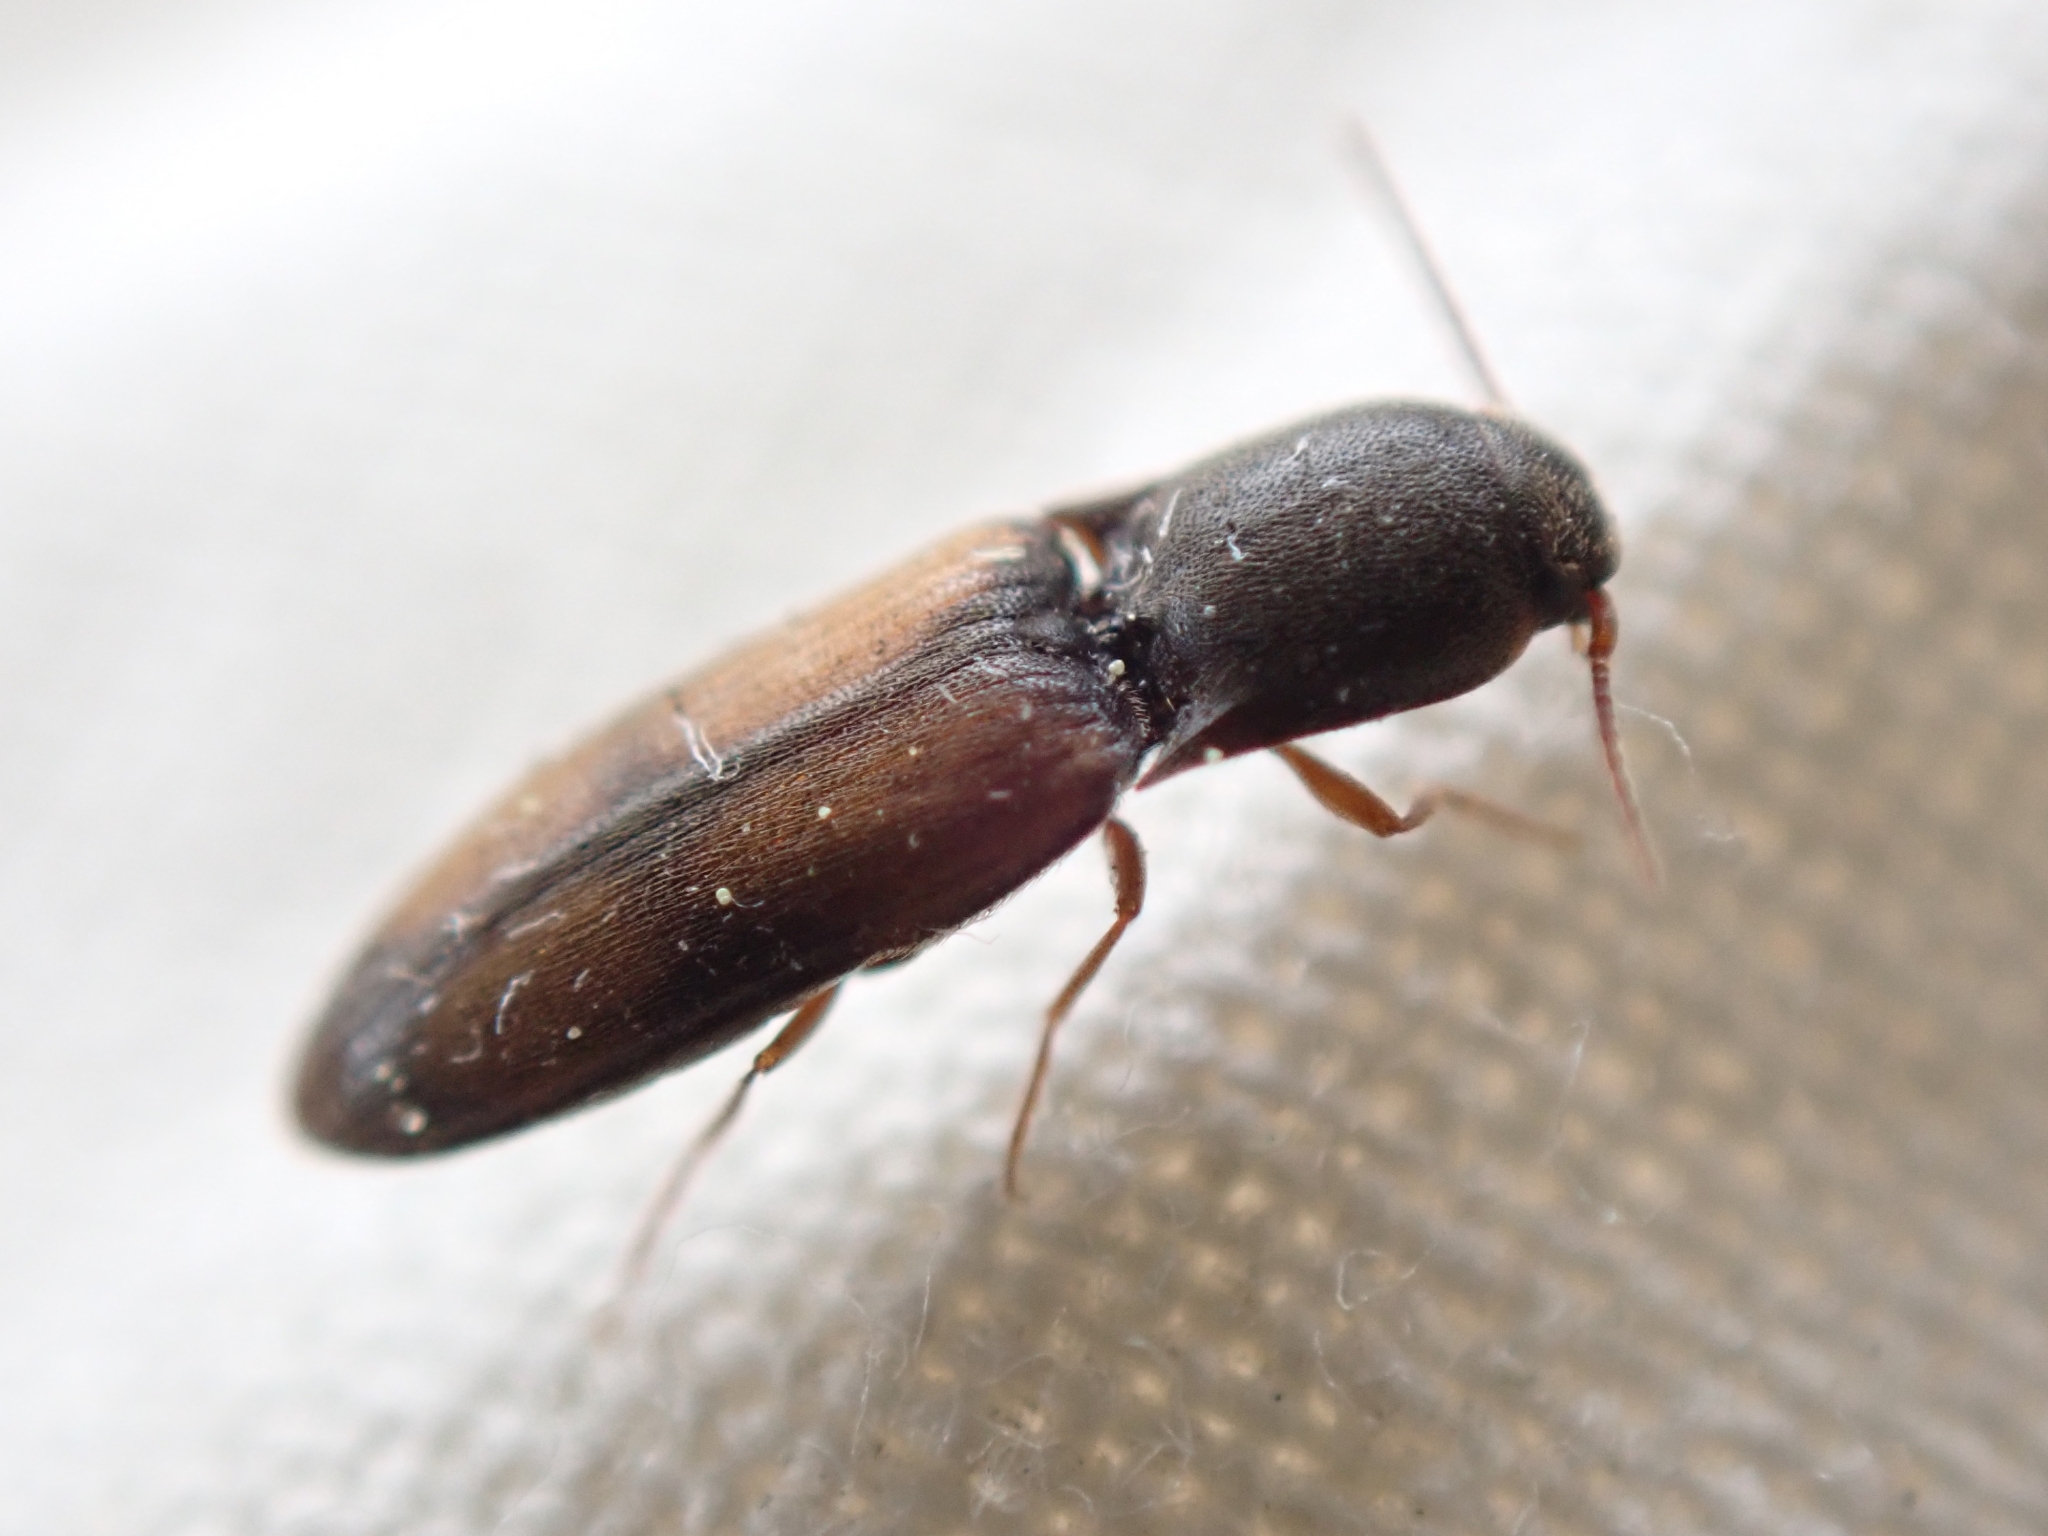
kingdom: Animalia
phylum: Arthropoda
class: Insecta
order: Coleoptera
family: Elateridae
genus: Idolus
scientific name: Idolus occidentalis
